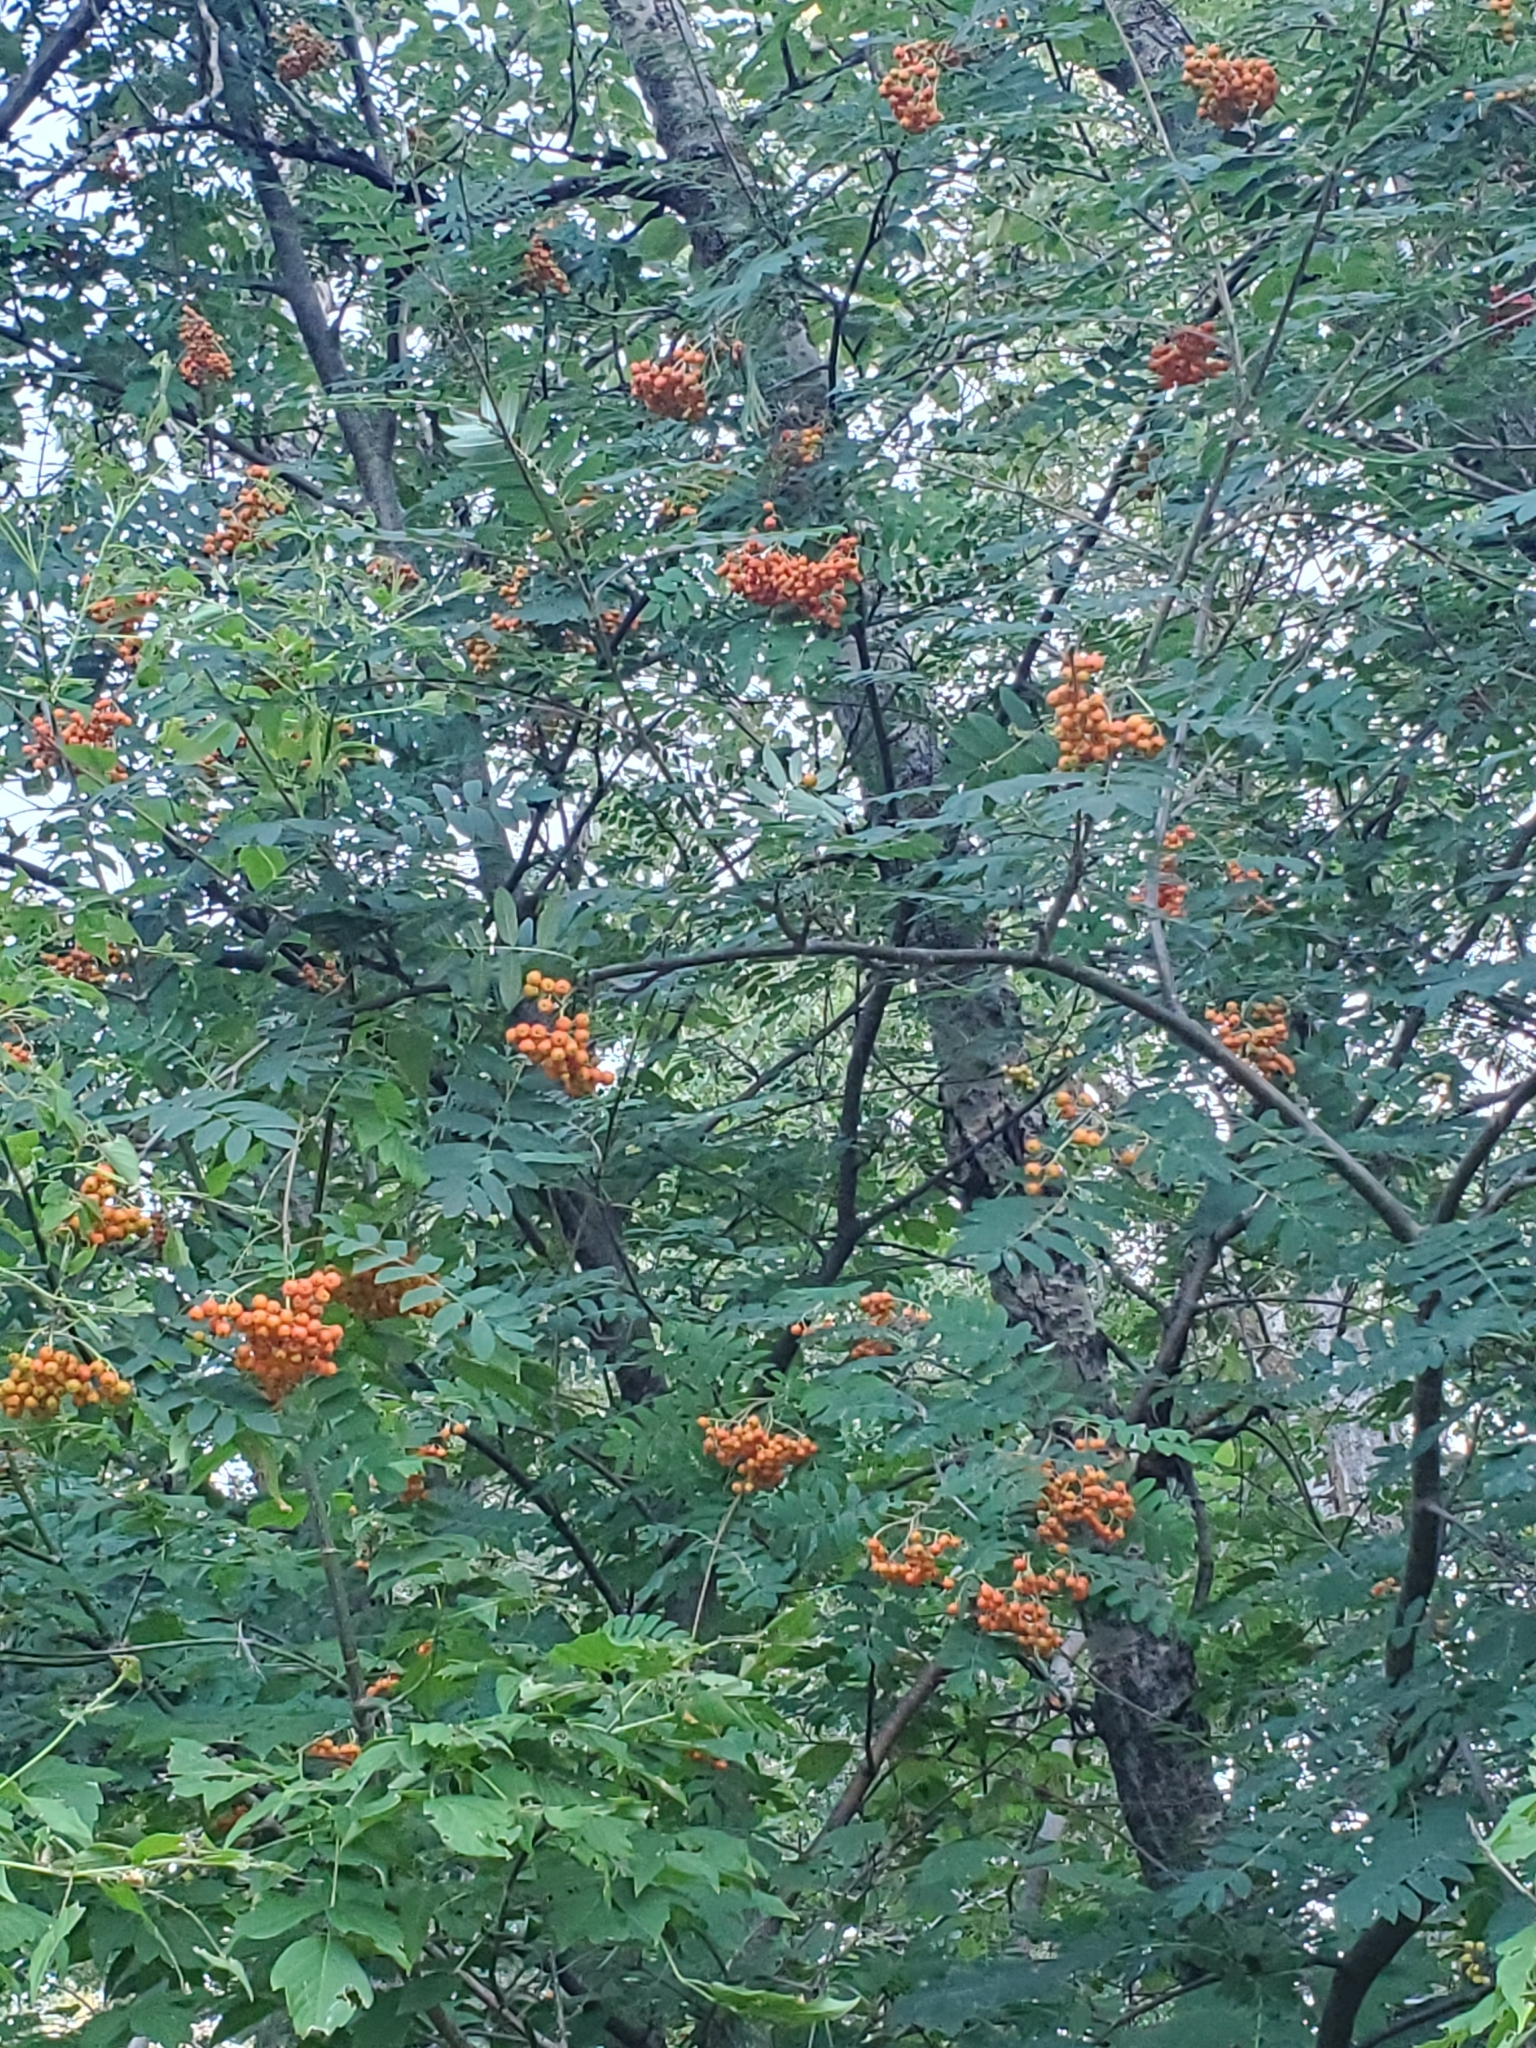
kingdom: Plantae
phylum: Tracheophyta
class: Magnoliopsida
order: Rosales
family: Rosaceae
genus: Sorbus
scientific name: Sorbus aucuparia
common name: Rowan
